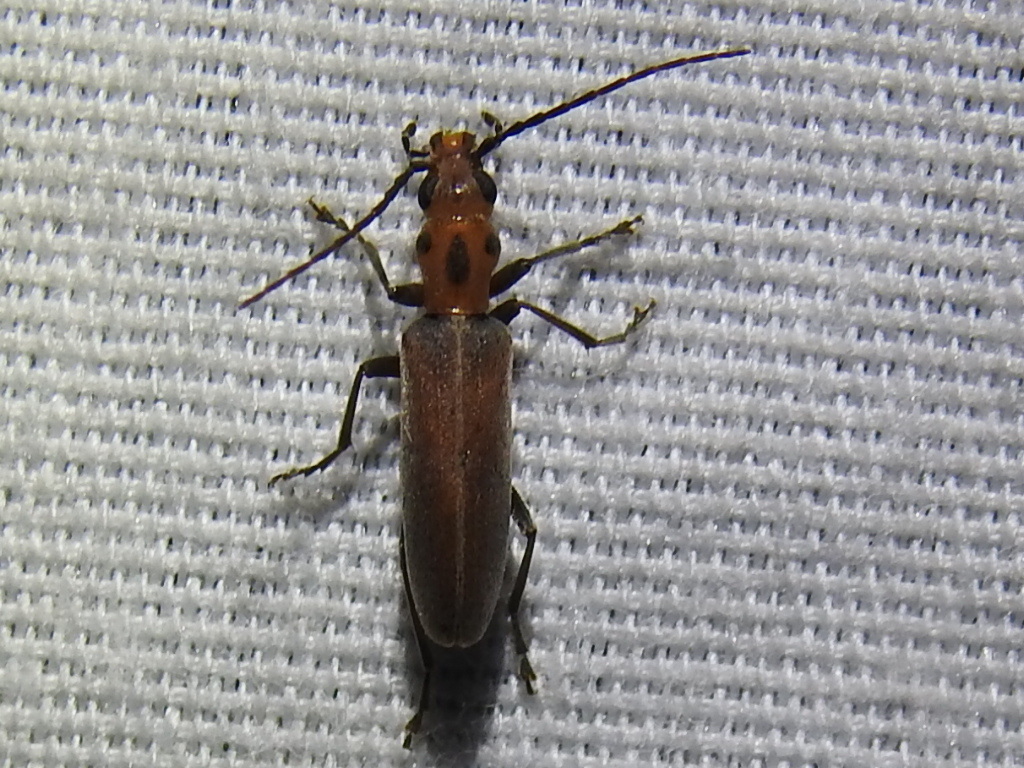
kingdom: Animalia
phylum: Arthropoda
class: Insecta
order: Coleoptera
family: Oedemeridae
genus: Oxacis
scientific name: Oxacis trimaculata
